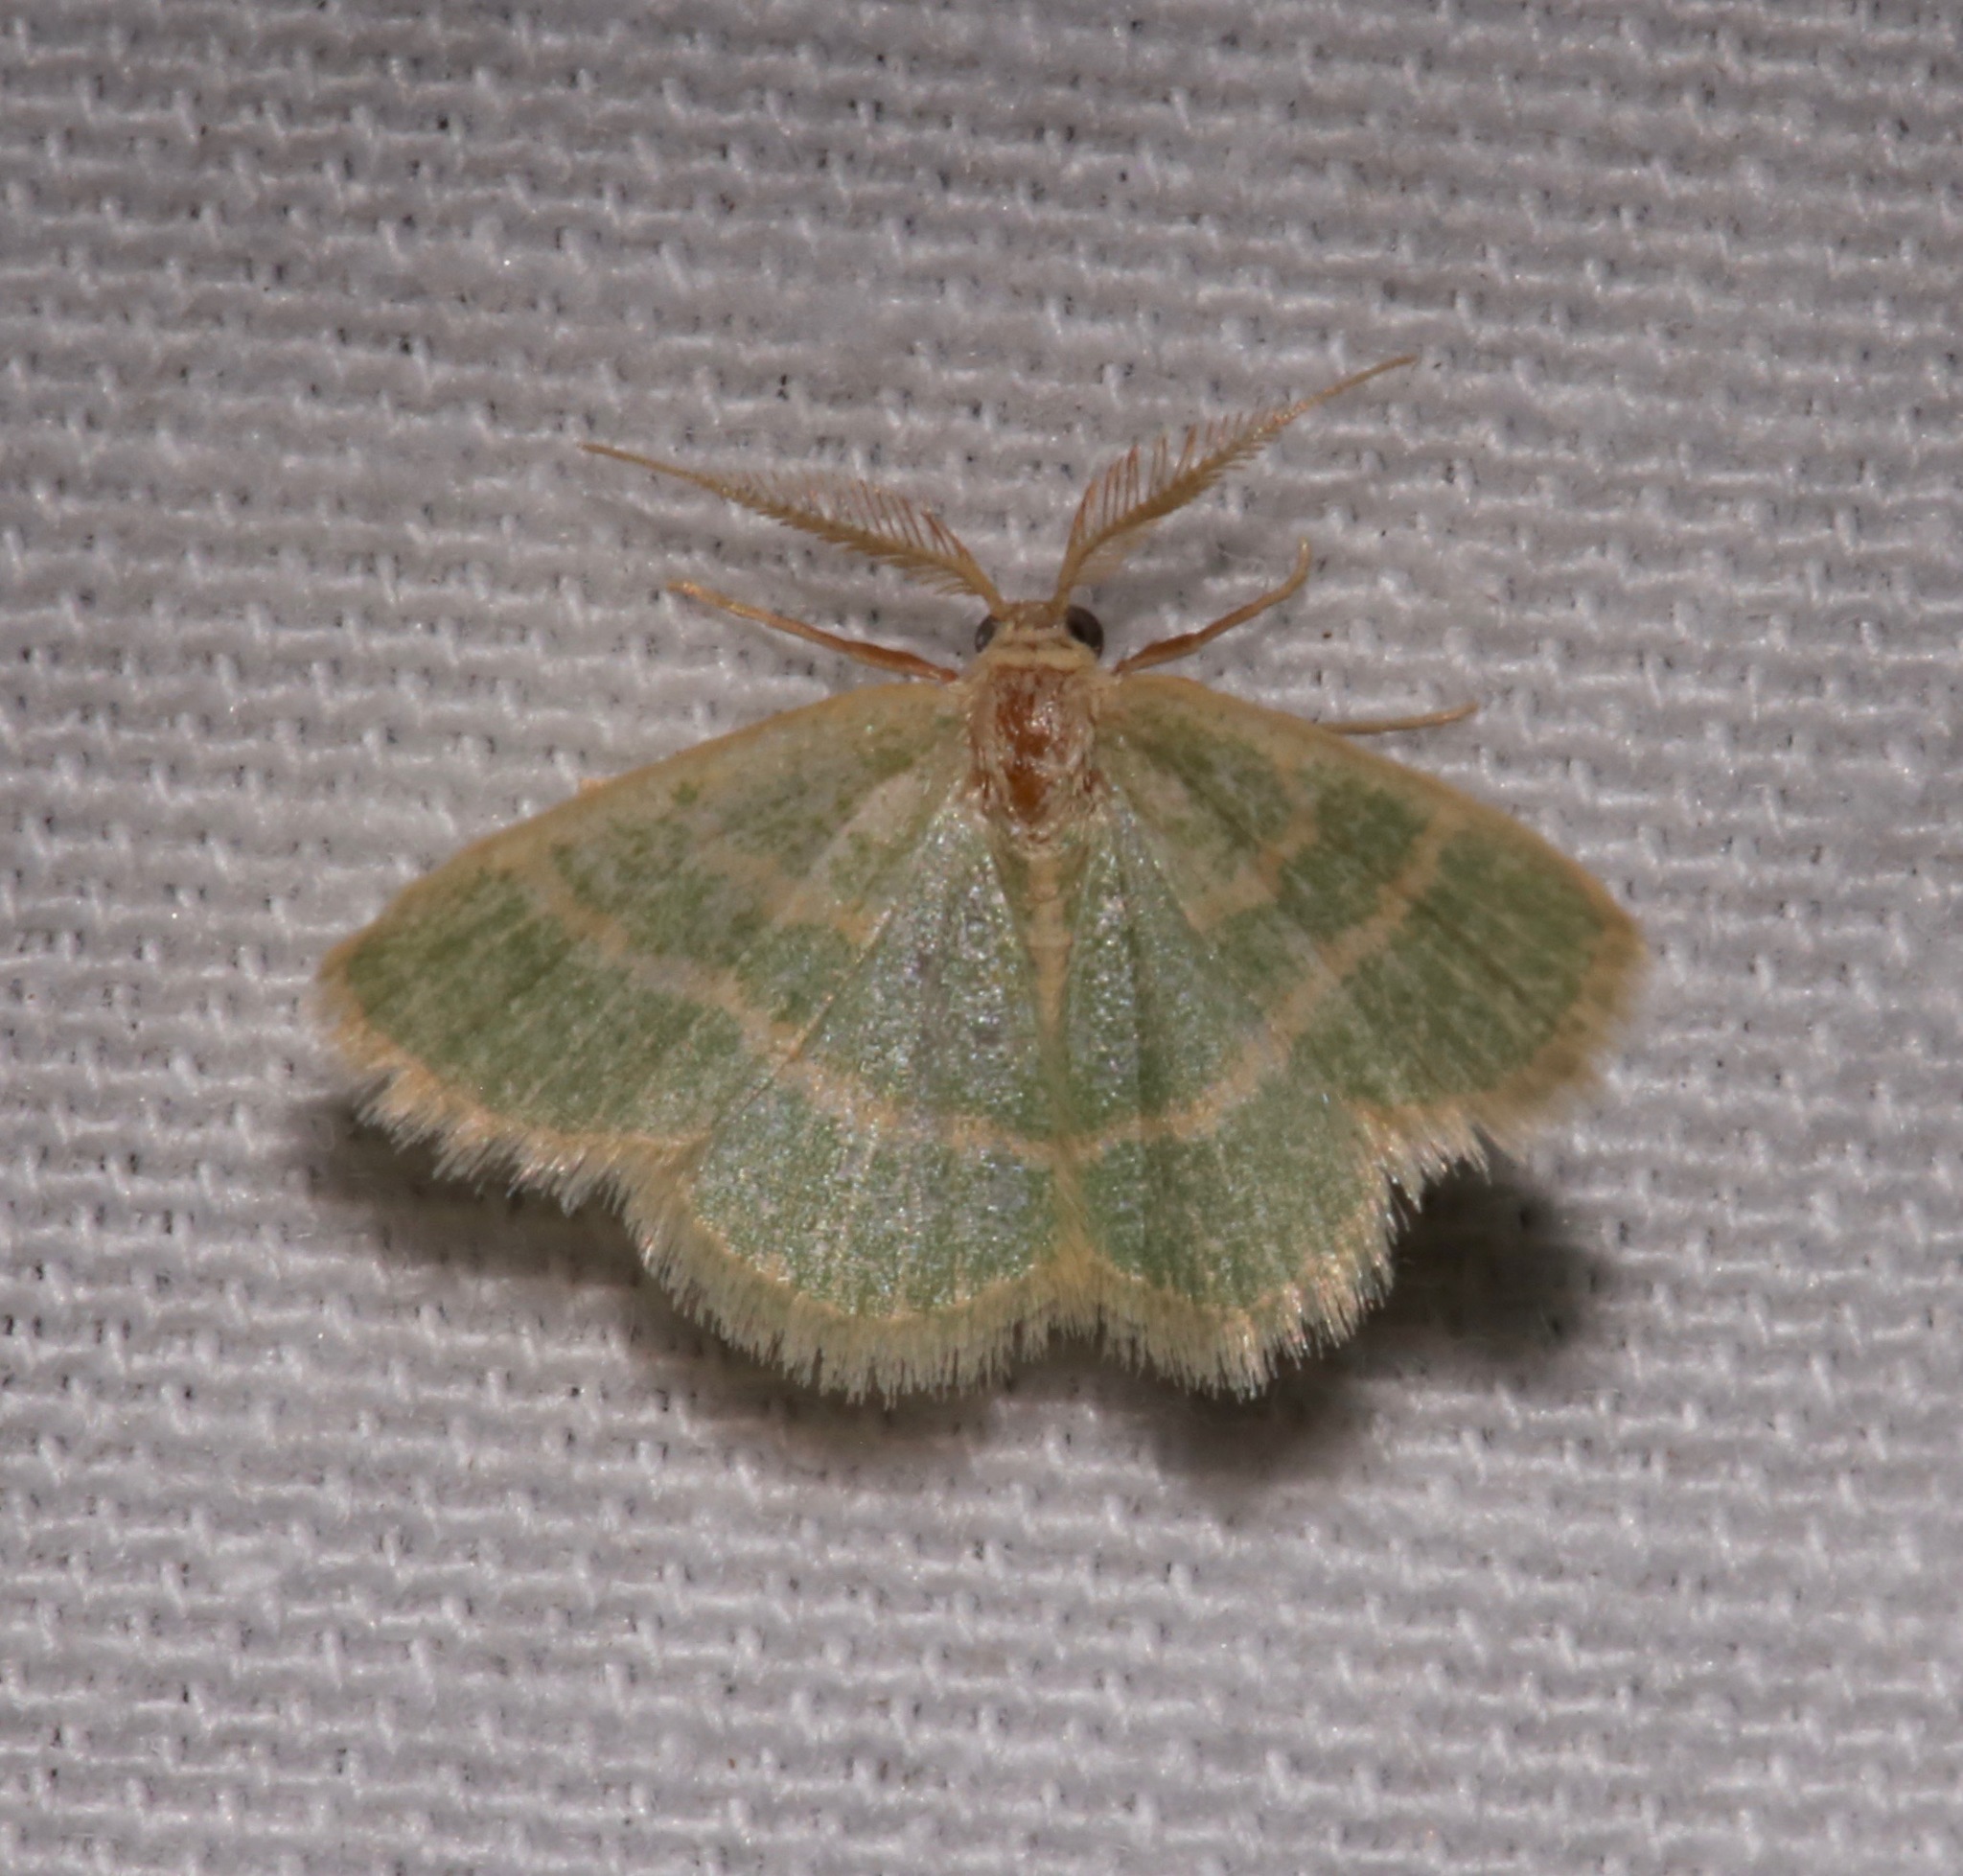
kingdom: Animalia
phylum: Arthropoda
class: Insecta
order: Lepidoptera
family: Geometridae
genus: Chlorochlamys
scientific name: Chlorochlamys chloroleucaria
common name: Blackberry looper
